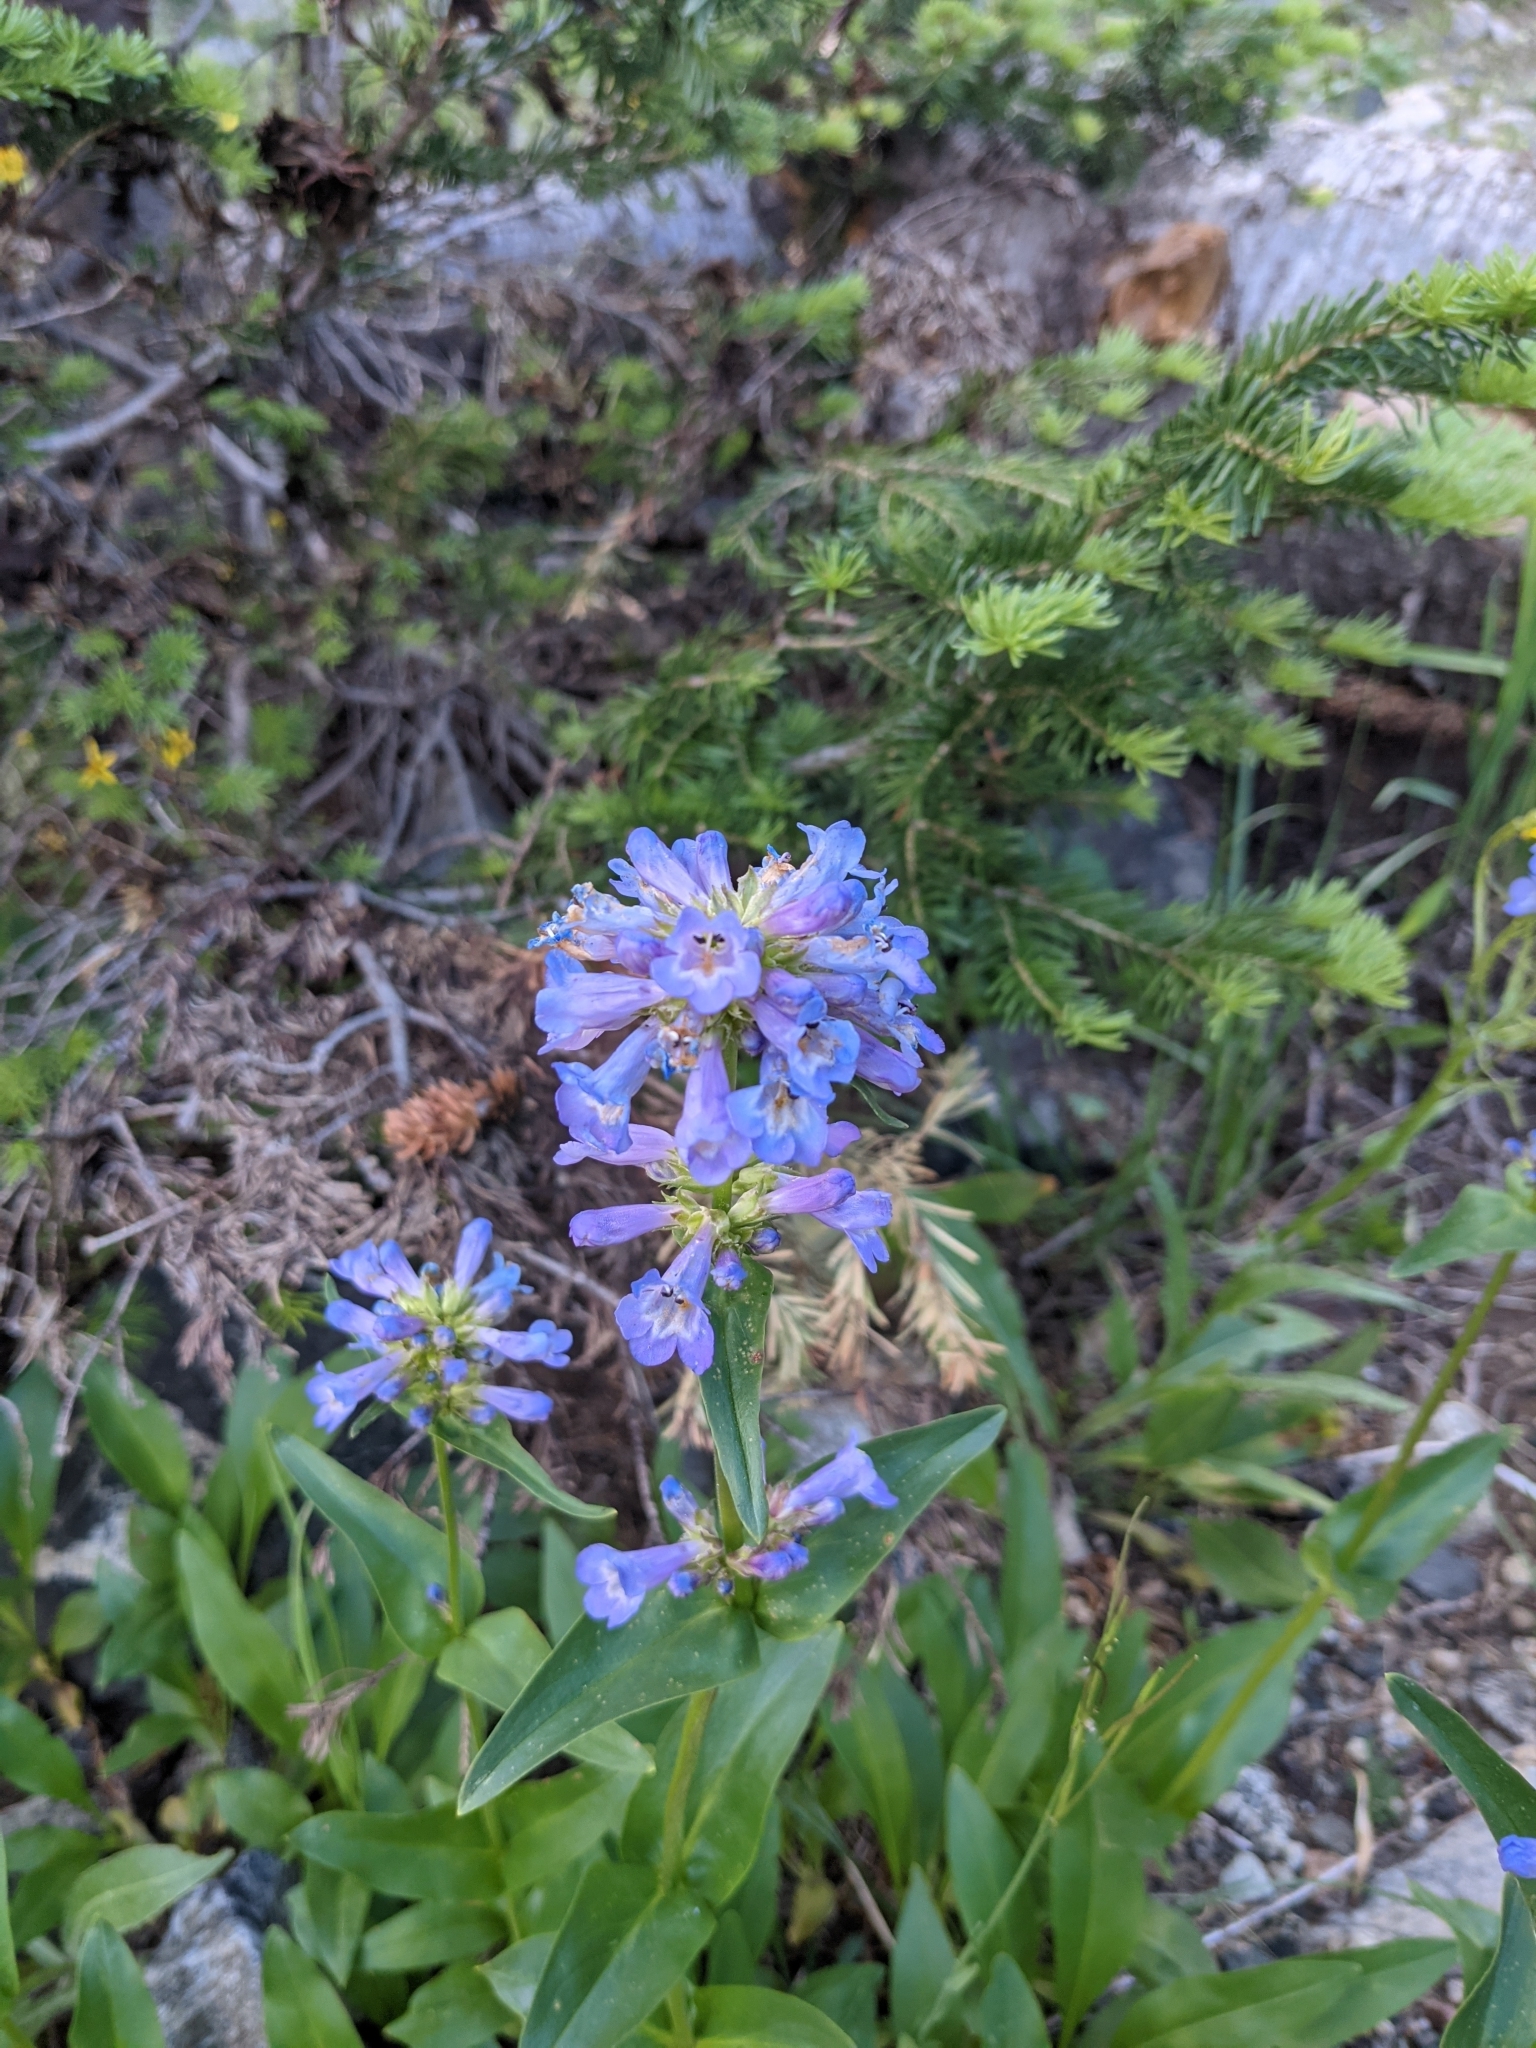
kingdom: Plantae
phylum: Tracheophyta
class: Magnoliopsida
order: Lamiales
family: Plantaginaceae
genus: Penstemon
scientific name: Penstemon rydbergii
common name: Rydberg's beardtongue
